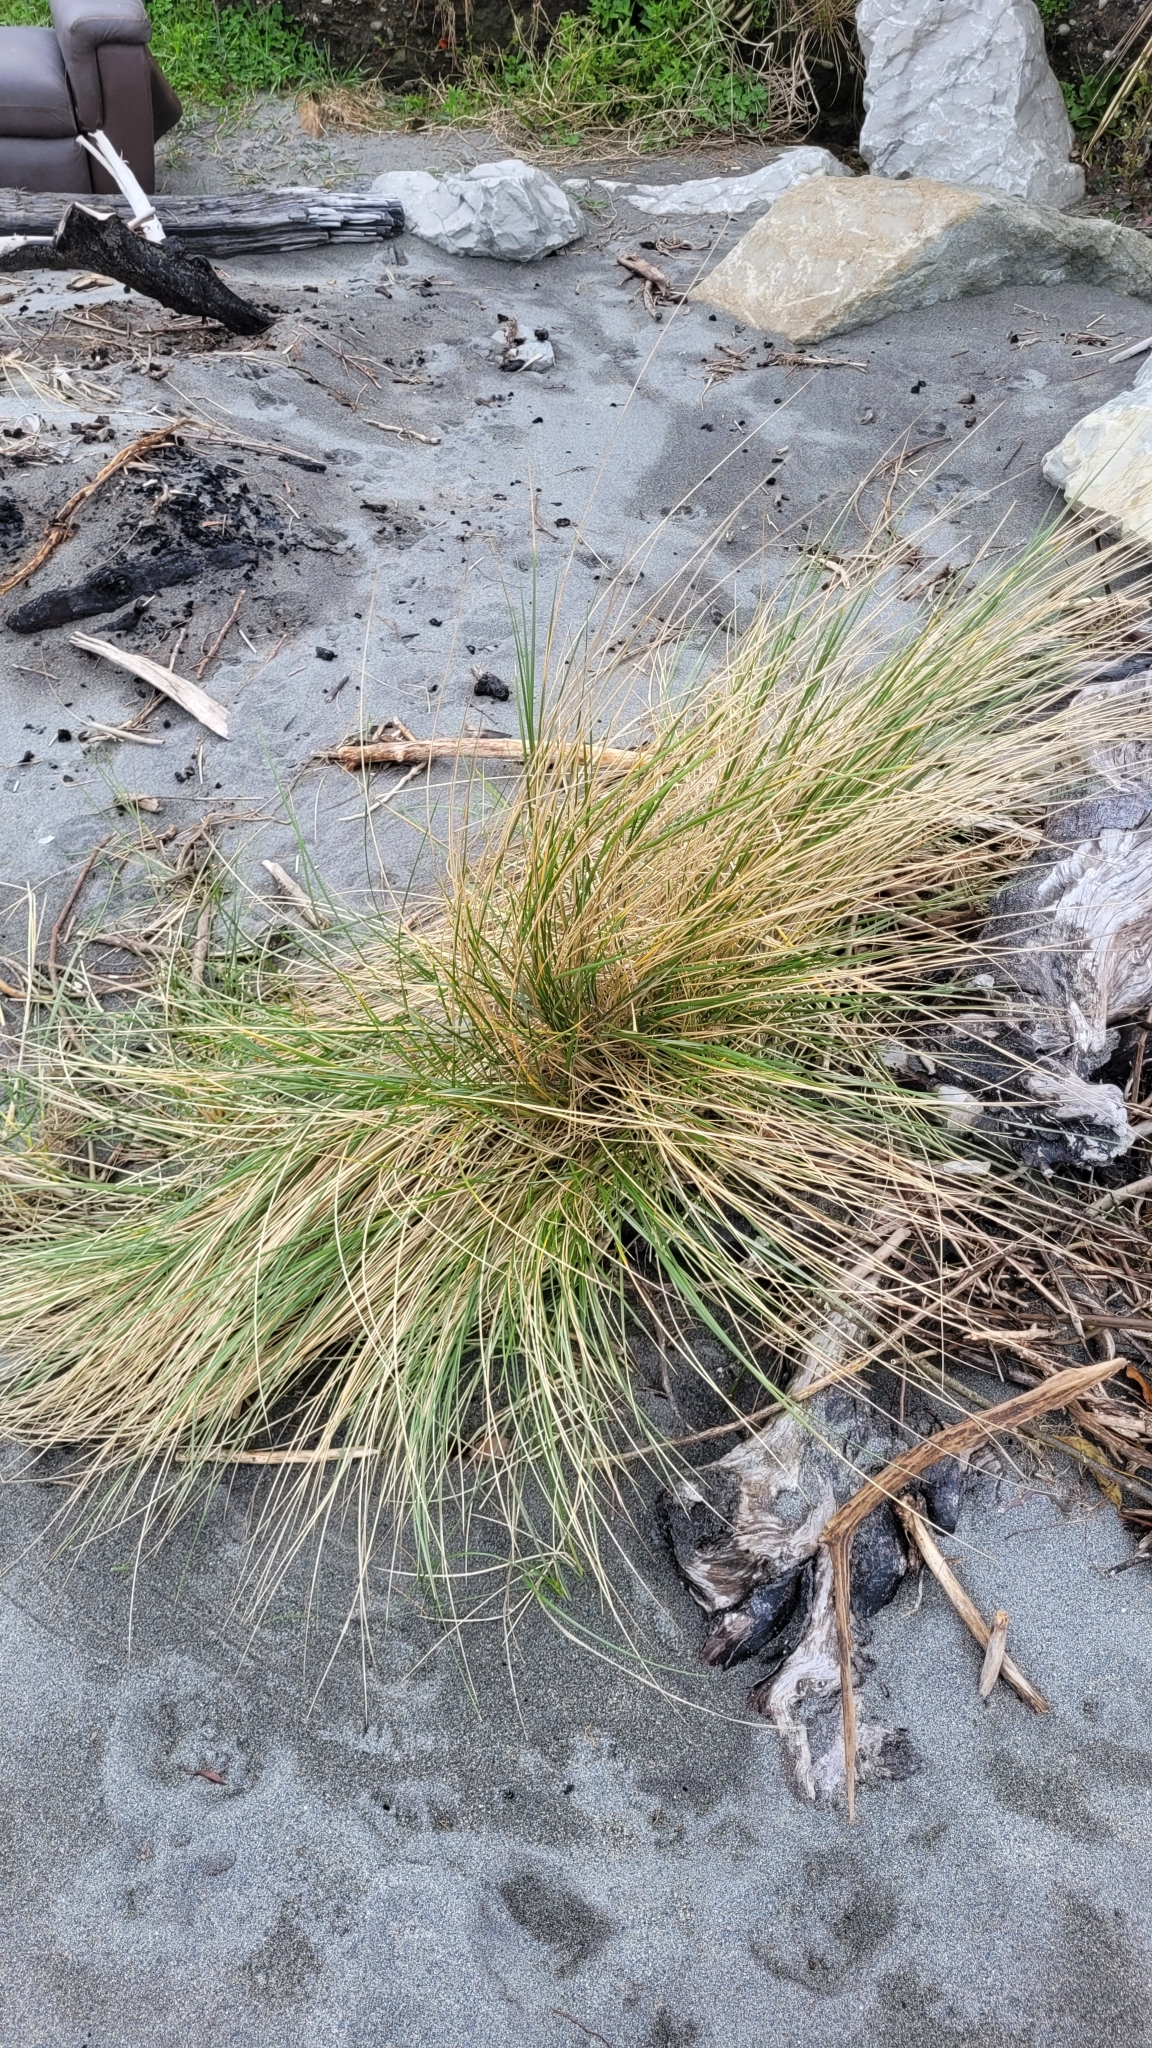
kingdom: Plantae
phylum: Tracheophyta
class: Liliopsida
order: Poales
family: Poaceae
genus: Calamagrostis
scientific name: Calamagrostis arenaria
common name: European beachgrass
